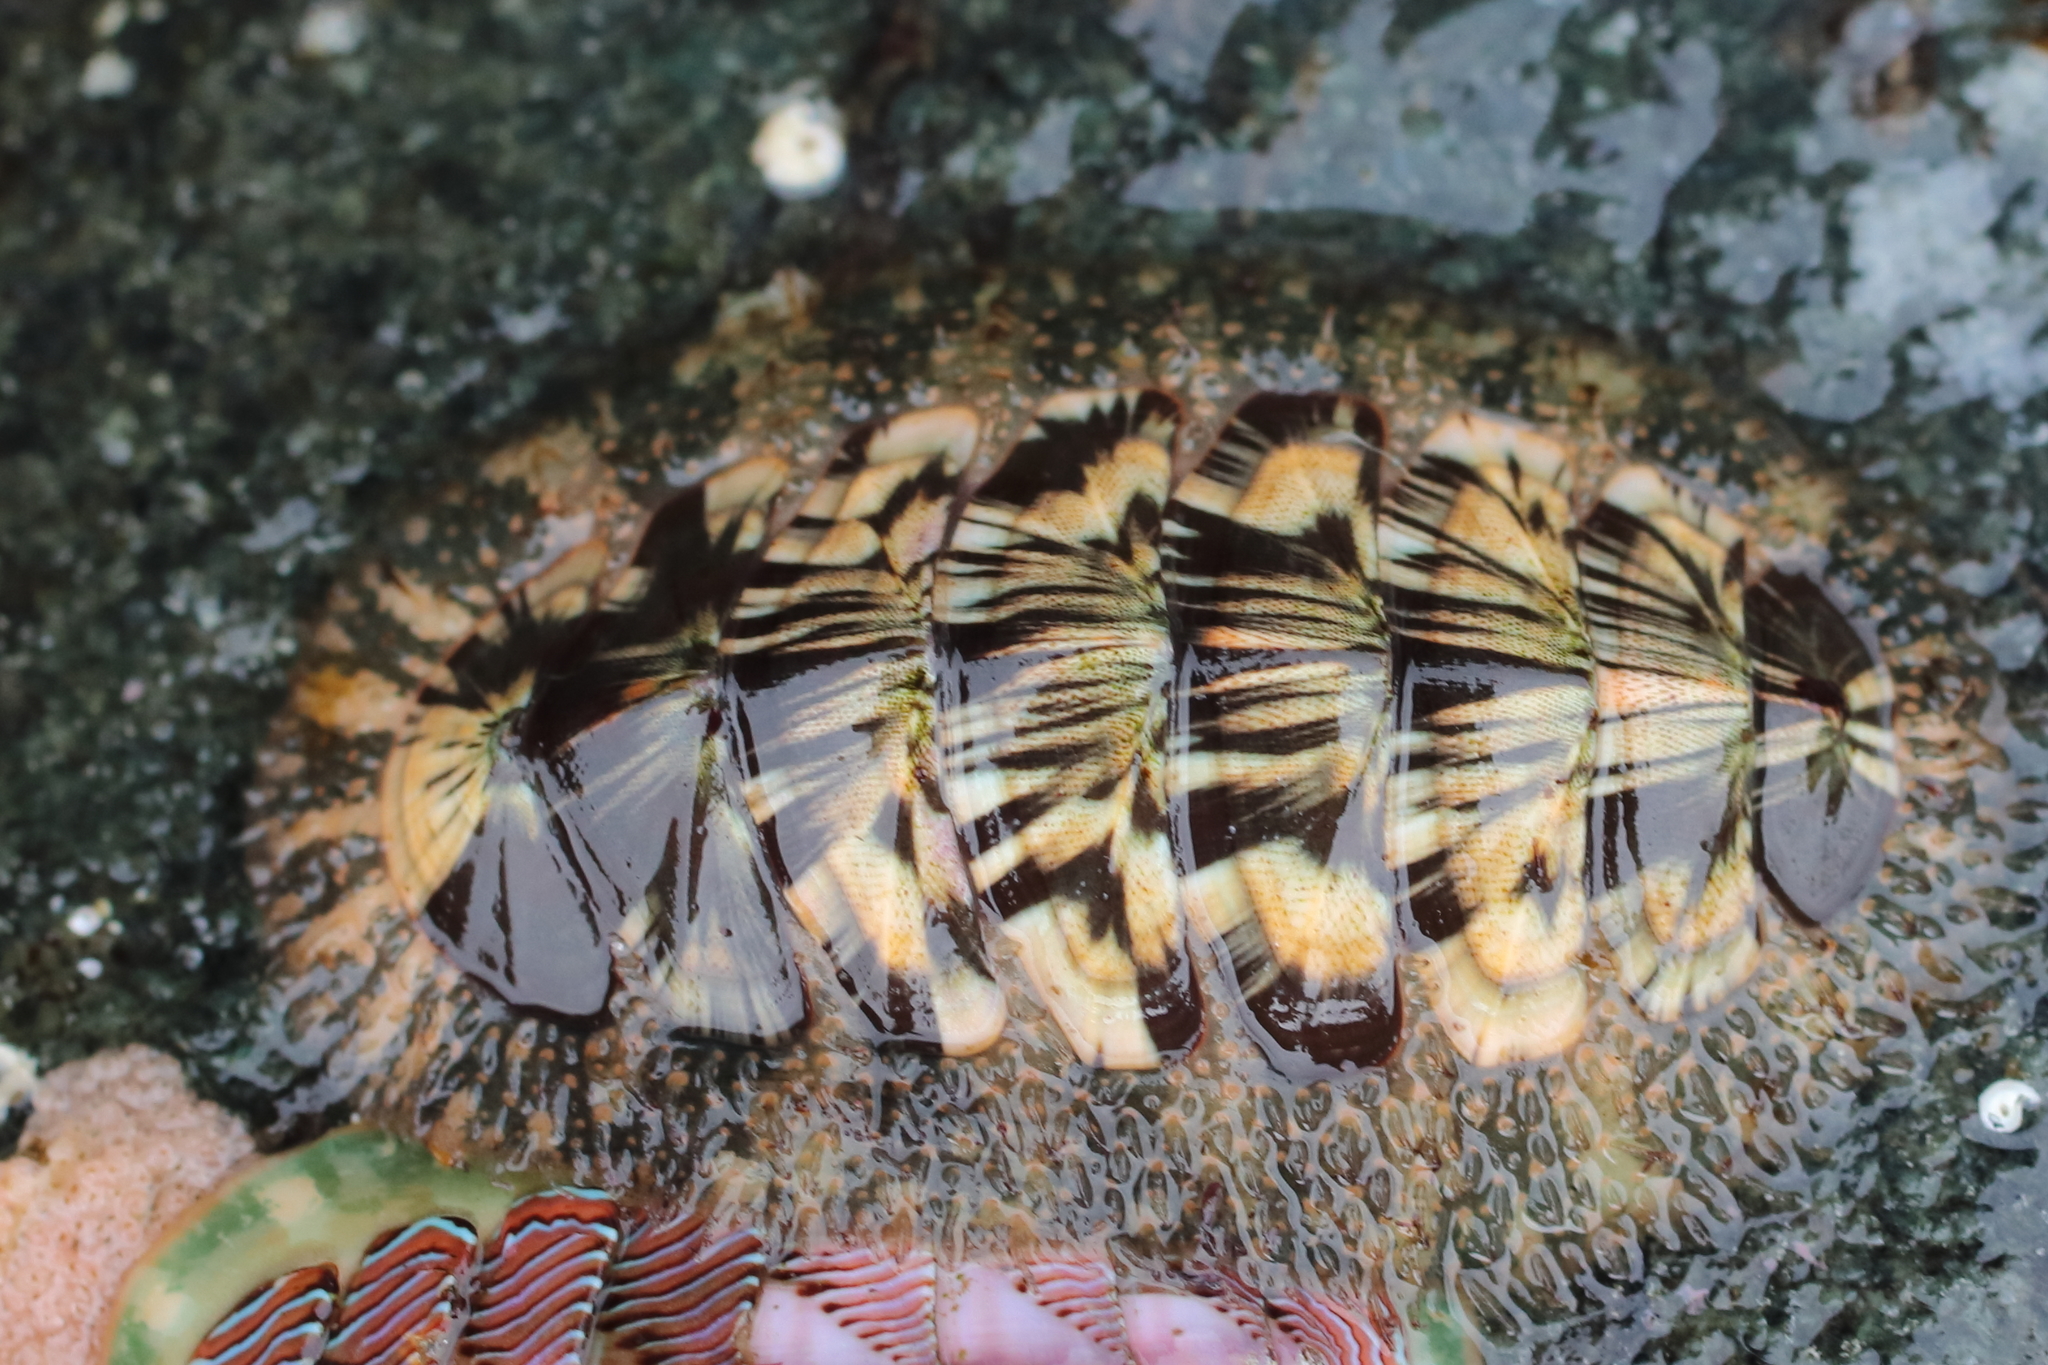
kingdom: Animalia
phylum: Mollusca
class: Polyplacophora
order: Chitonida
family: Mopaliidae
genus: Mopalia
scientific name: Mopalia lignosa
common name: Woody chiton
